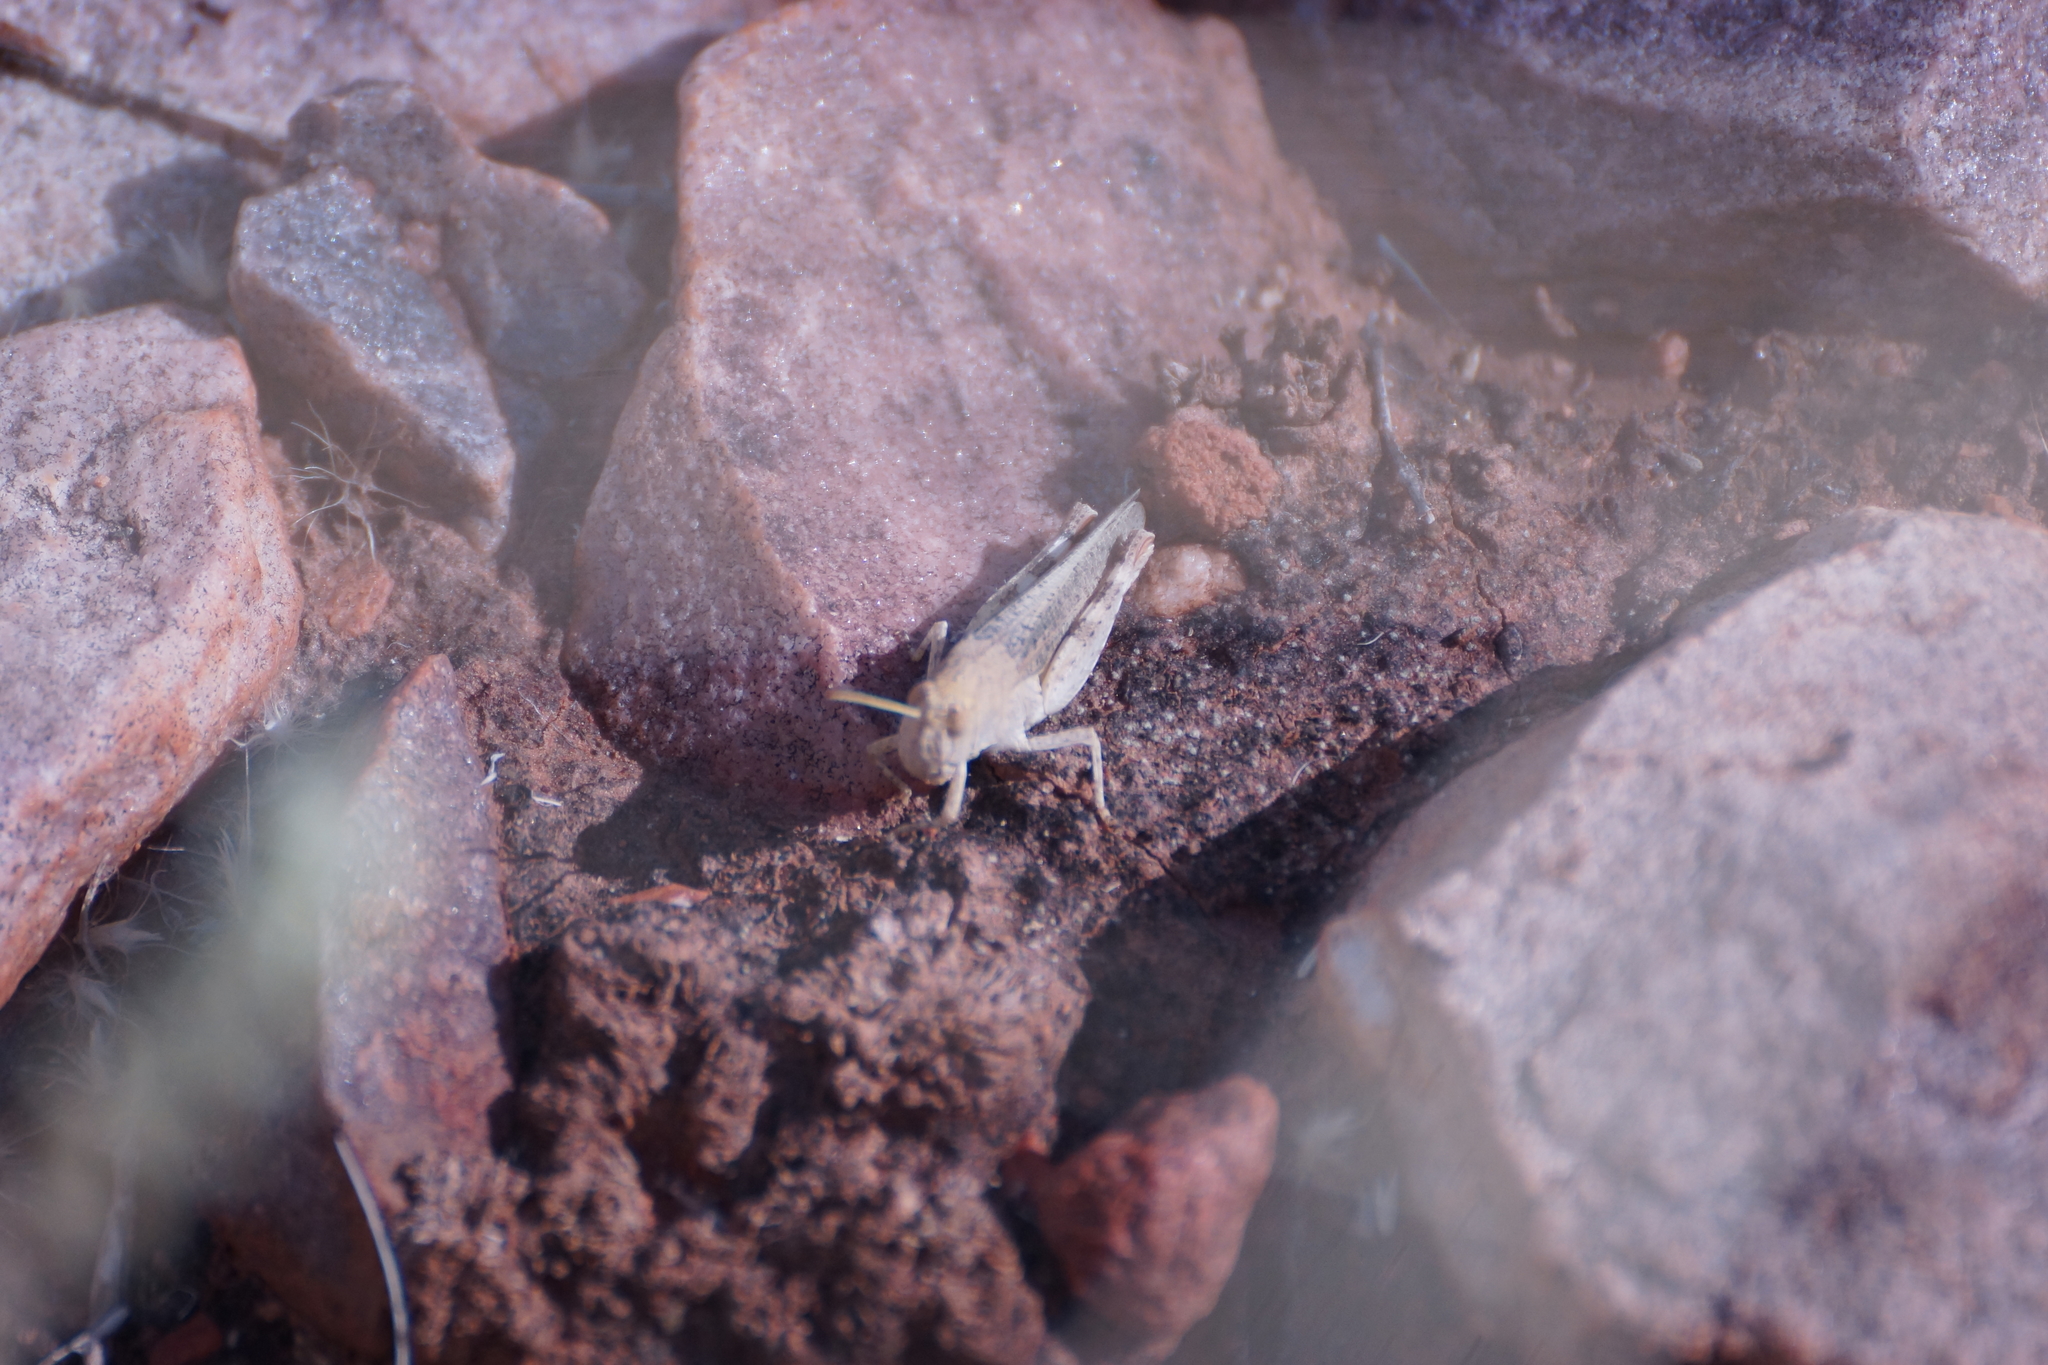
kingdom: Animalia
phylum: Arthropoda
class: Insecta
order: Orthoptera
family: Acrididae
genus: Desertaria
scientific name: Desertaria lepida
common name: Ungee-gungee
